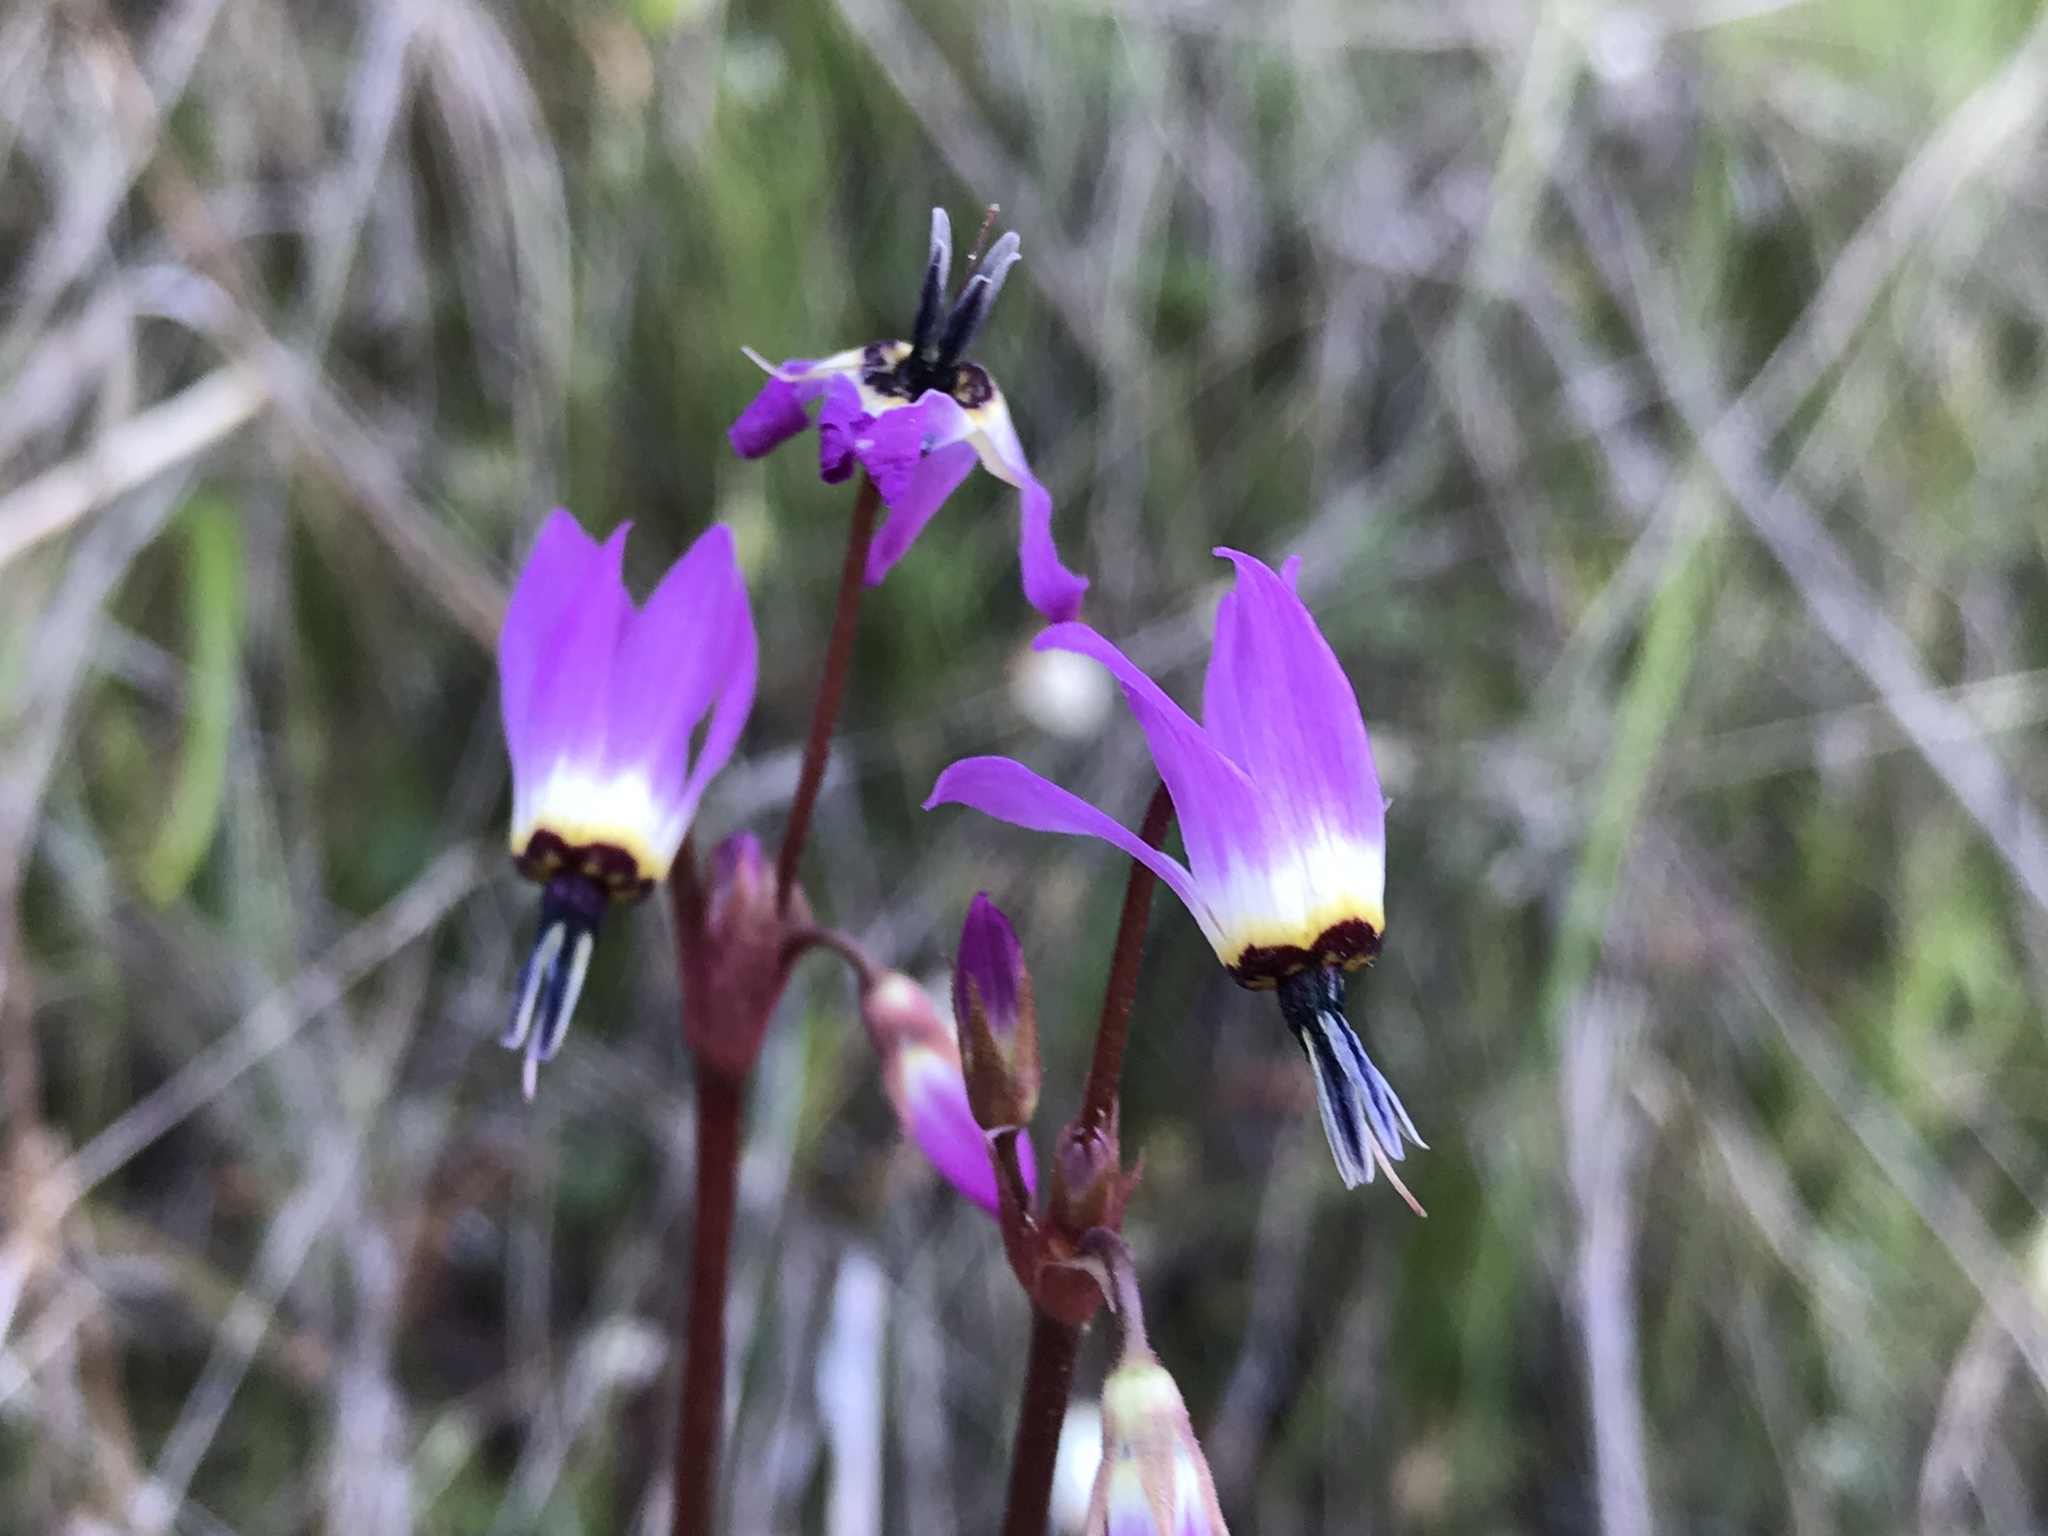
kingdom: Plantae
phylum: Tracheophyta
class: Magnoliopsida
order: Ericales
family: Primulaceae
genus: Dodecatheon
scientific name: Dodecatheon hendersonii
